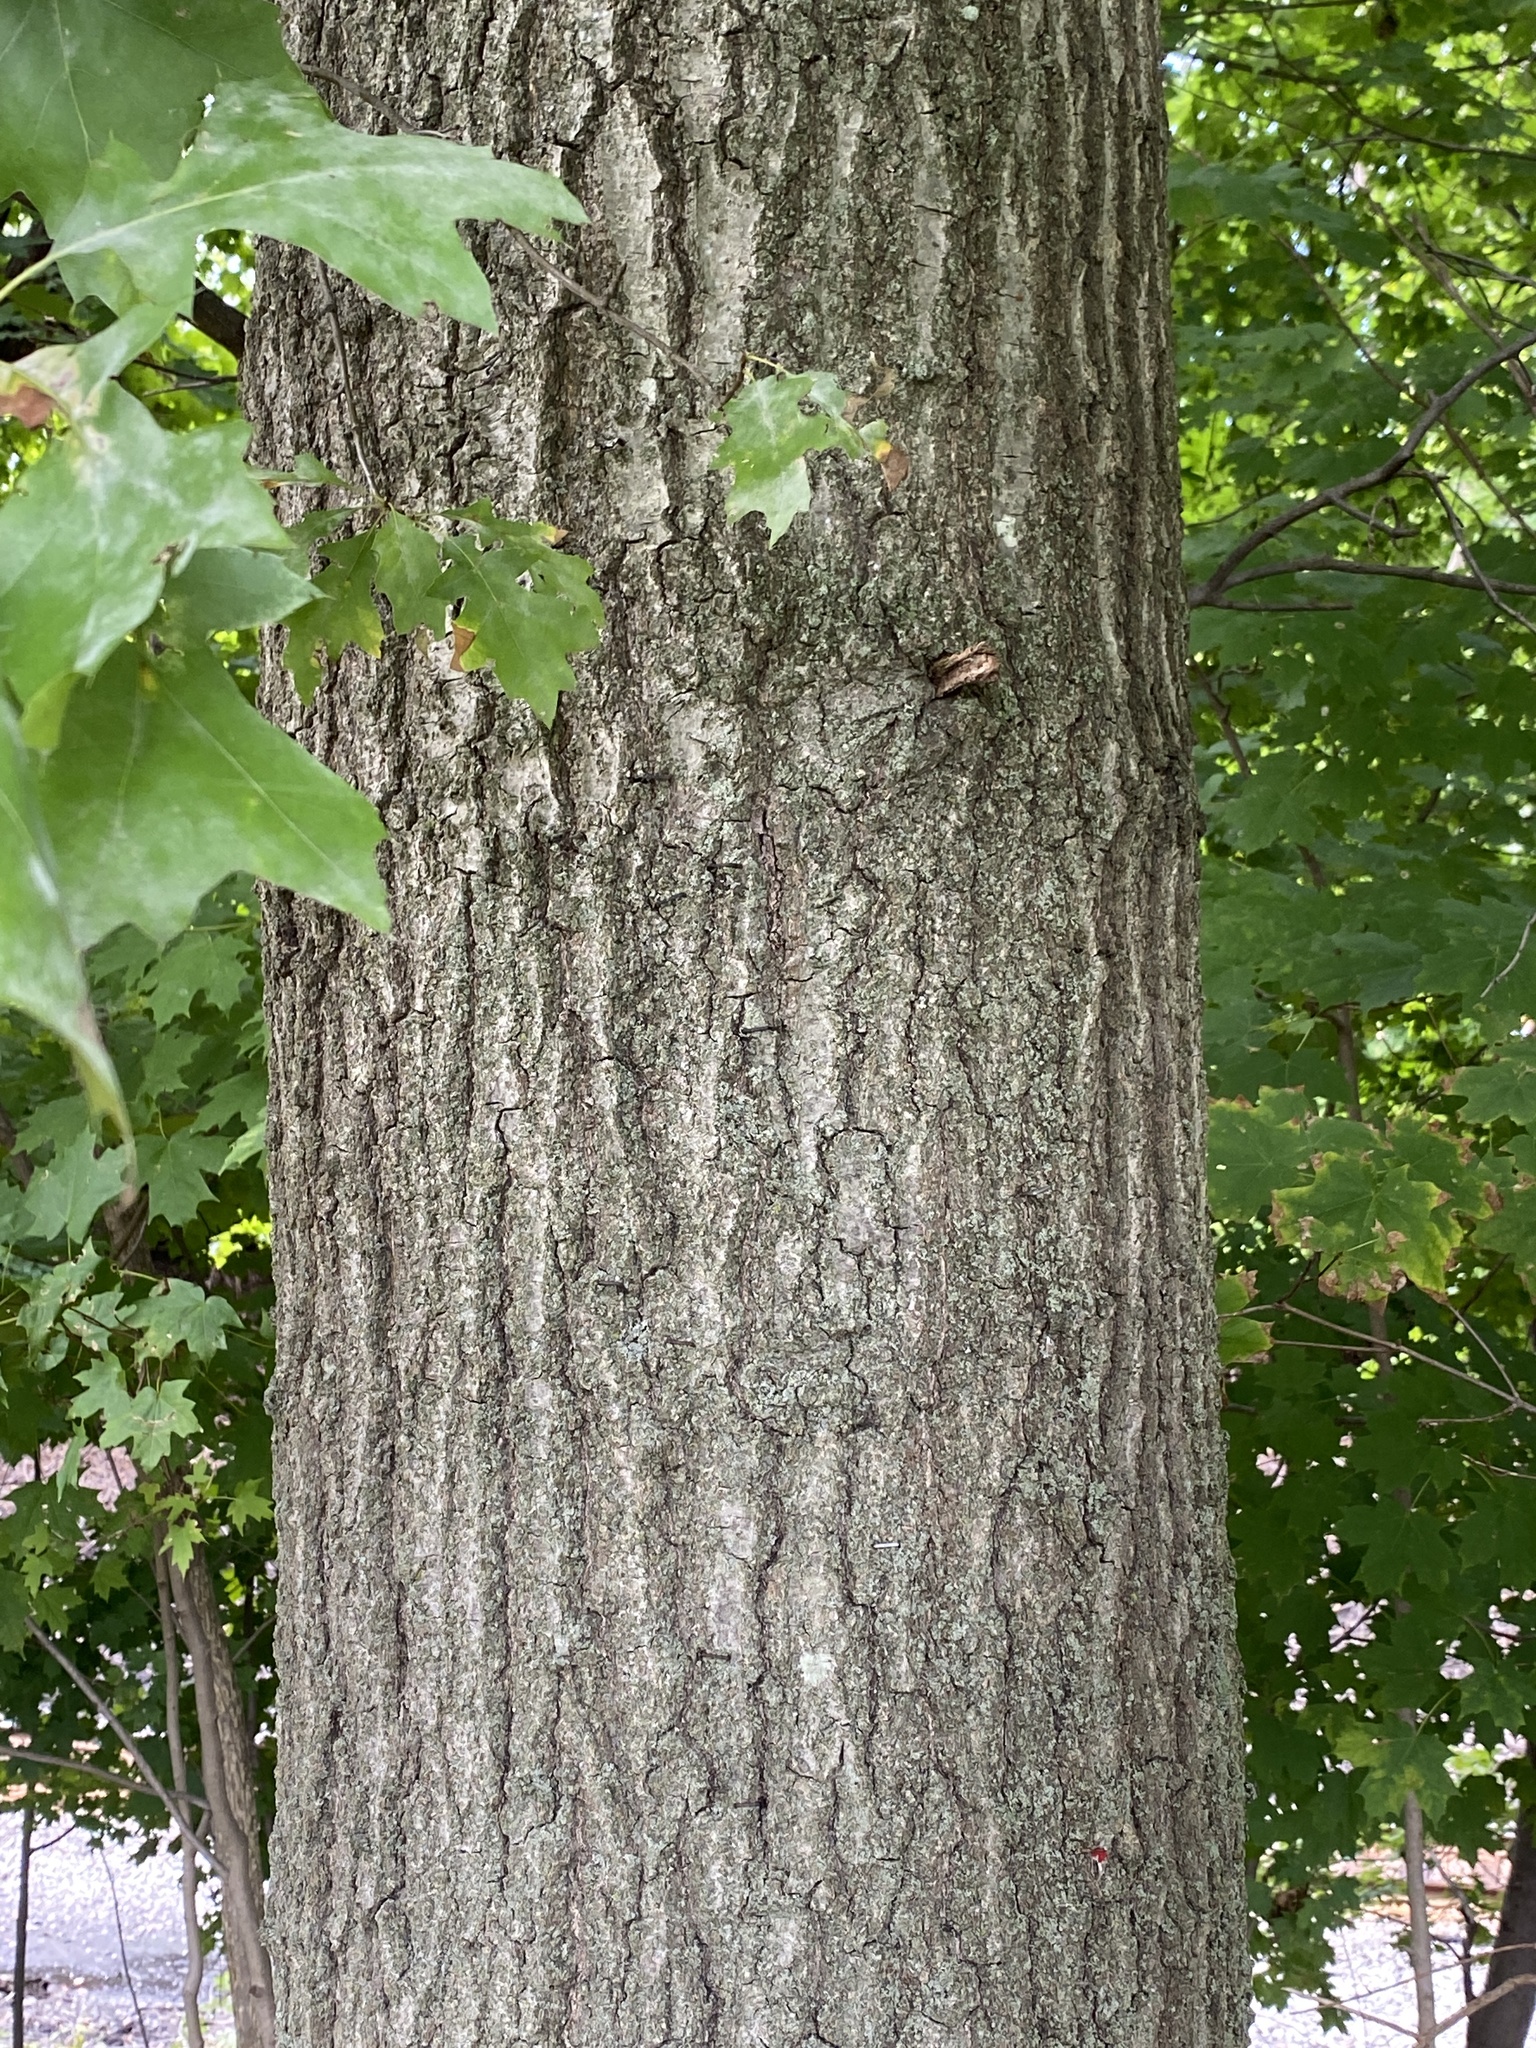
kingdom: Plantae
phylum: Tracheophyta
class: Magnoliopsida
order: Fagales
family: Fagaceae
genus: Quercus
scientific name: Quercus palustris
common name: Pin oak
